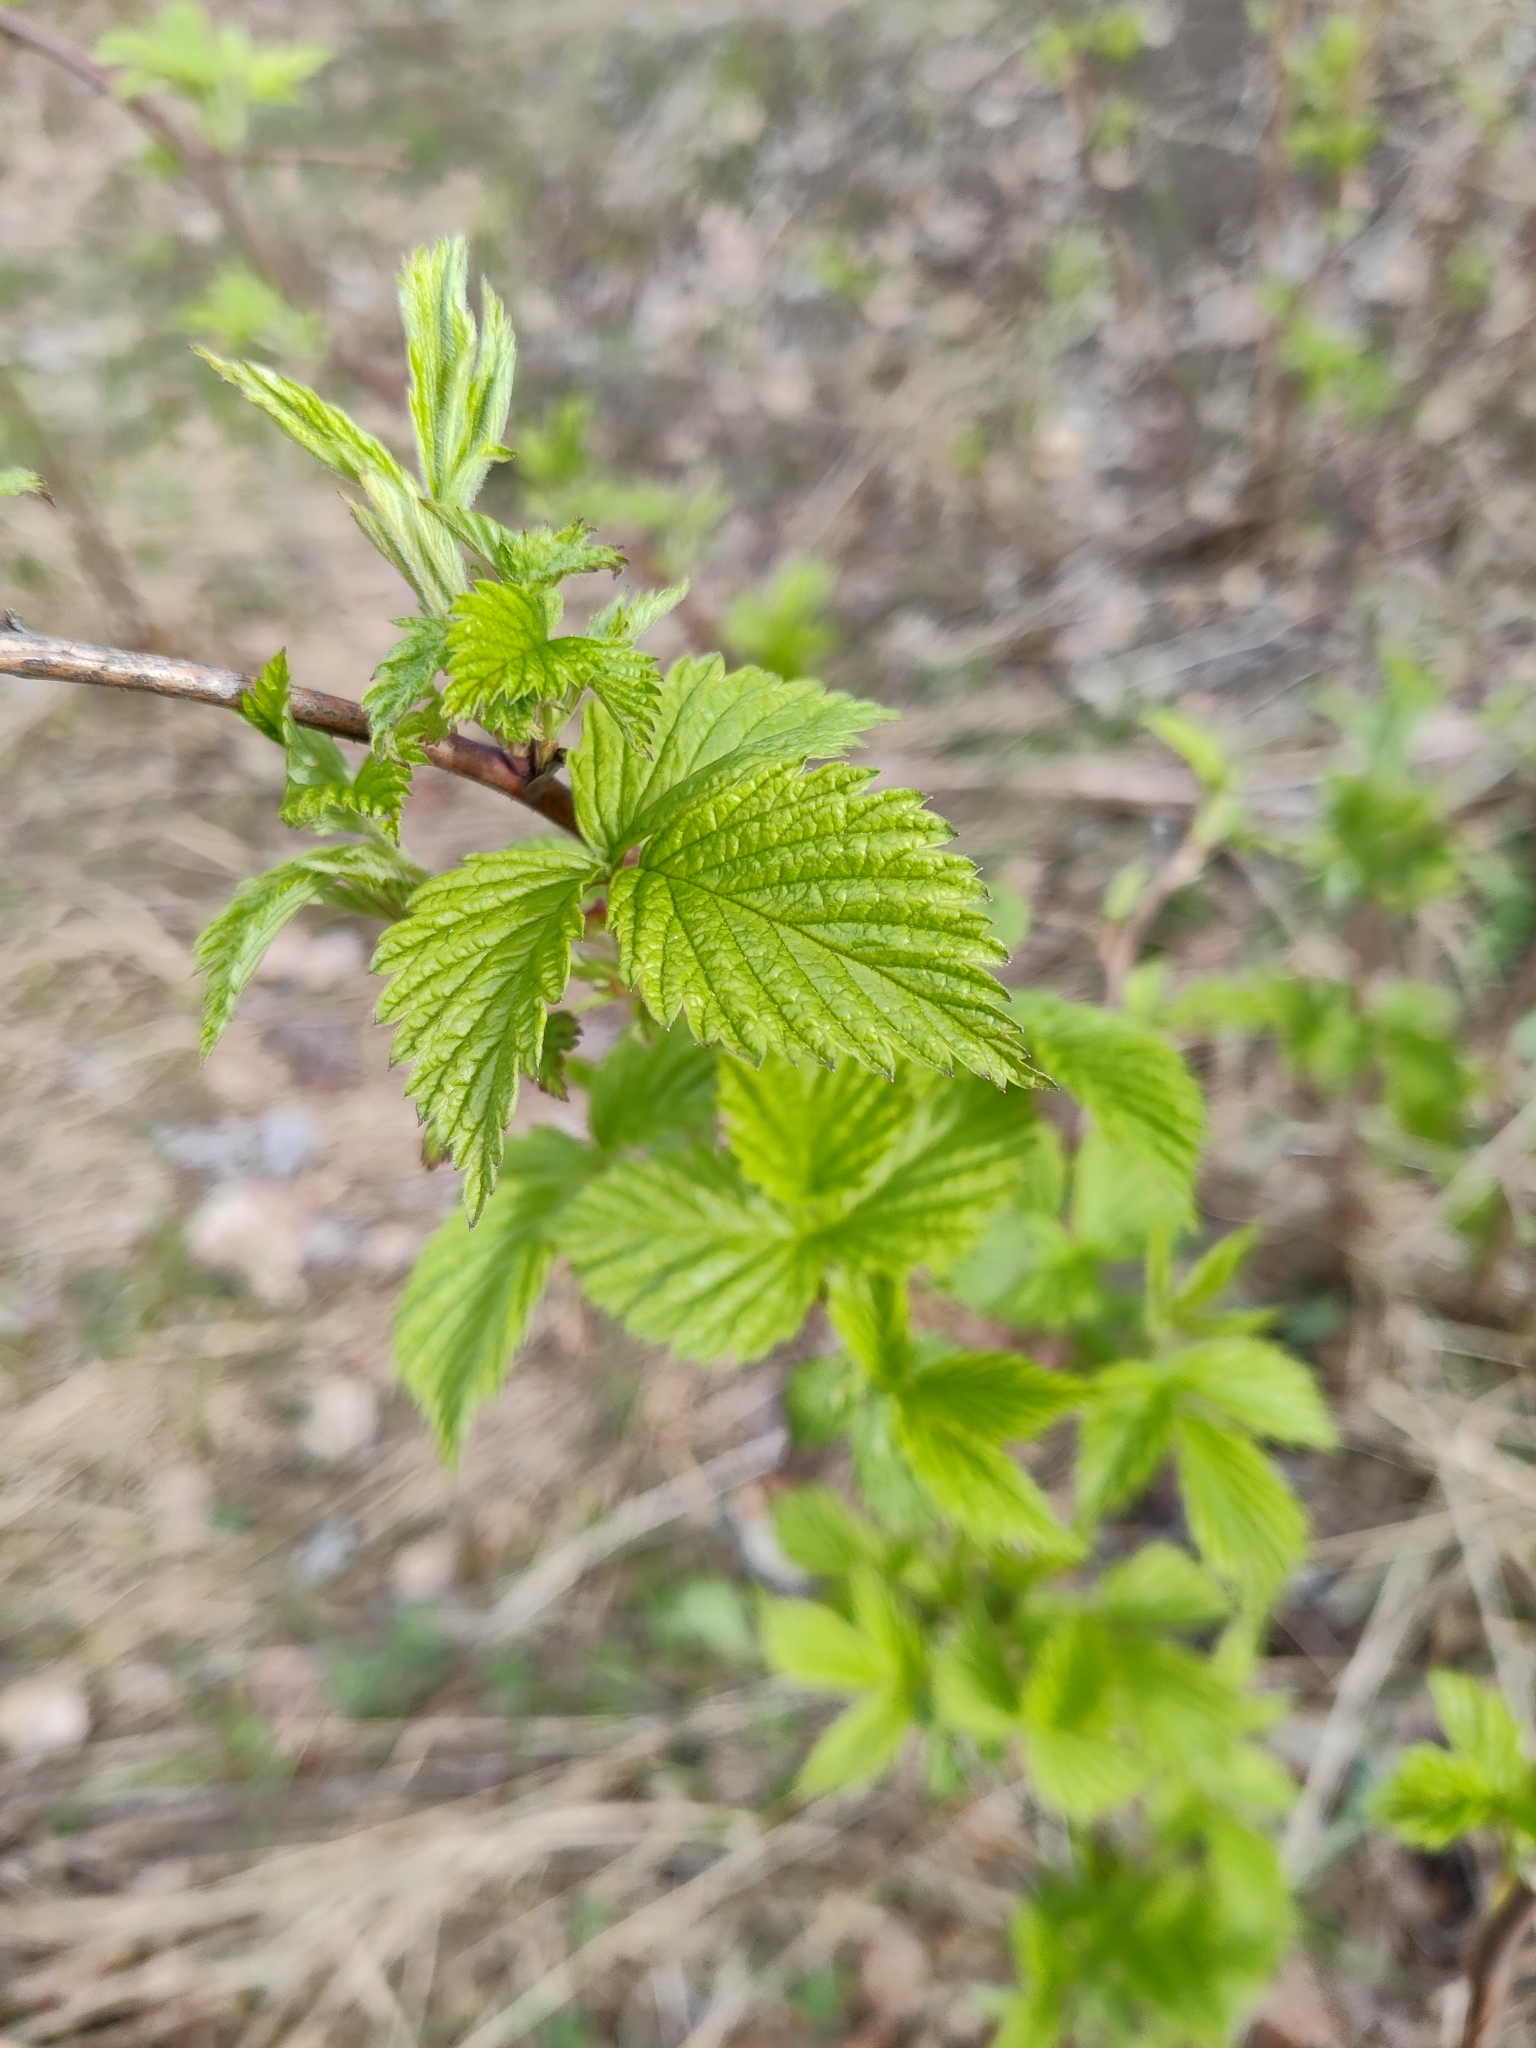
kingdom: Plantae
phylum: Tracheophyta
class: Magnoliopsida
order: Rosales
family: Rosaceae
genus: Rubus
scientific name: Rubus idaeus
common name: Raspberry
